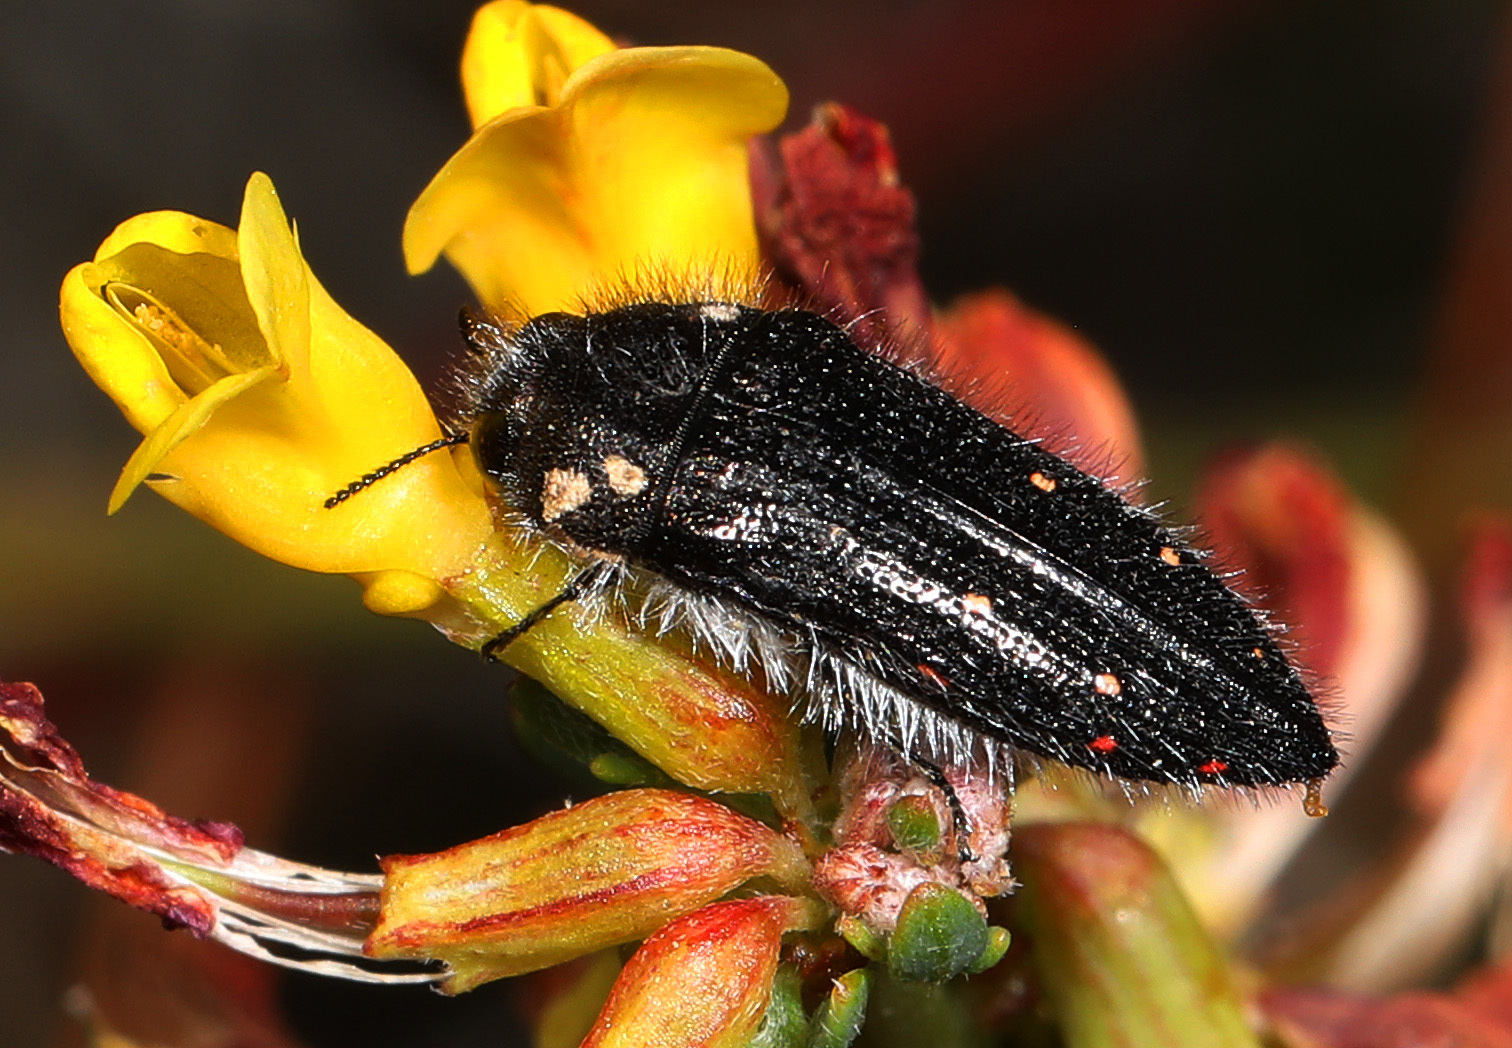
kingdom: Animalia
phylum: Arthropoda
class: Insecta
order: Coleoptera
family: Buprestidae
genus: Acmaeodera
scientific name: Acmaeodera fenyesi
